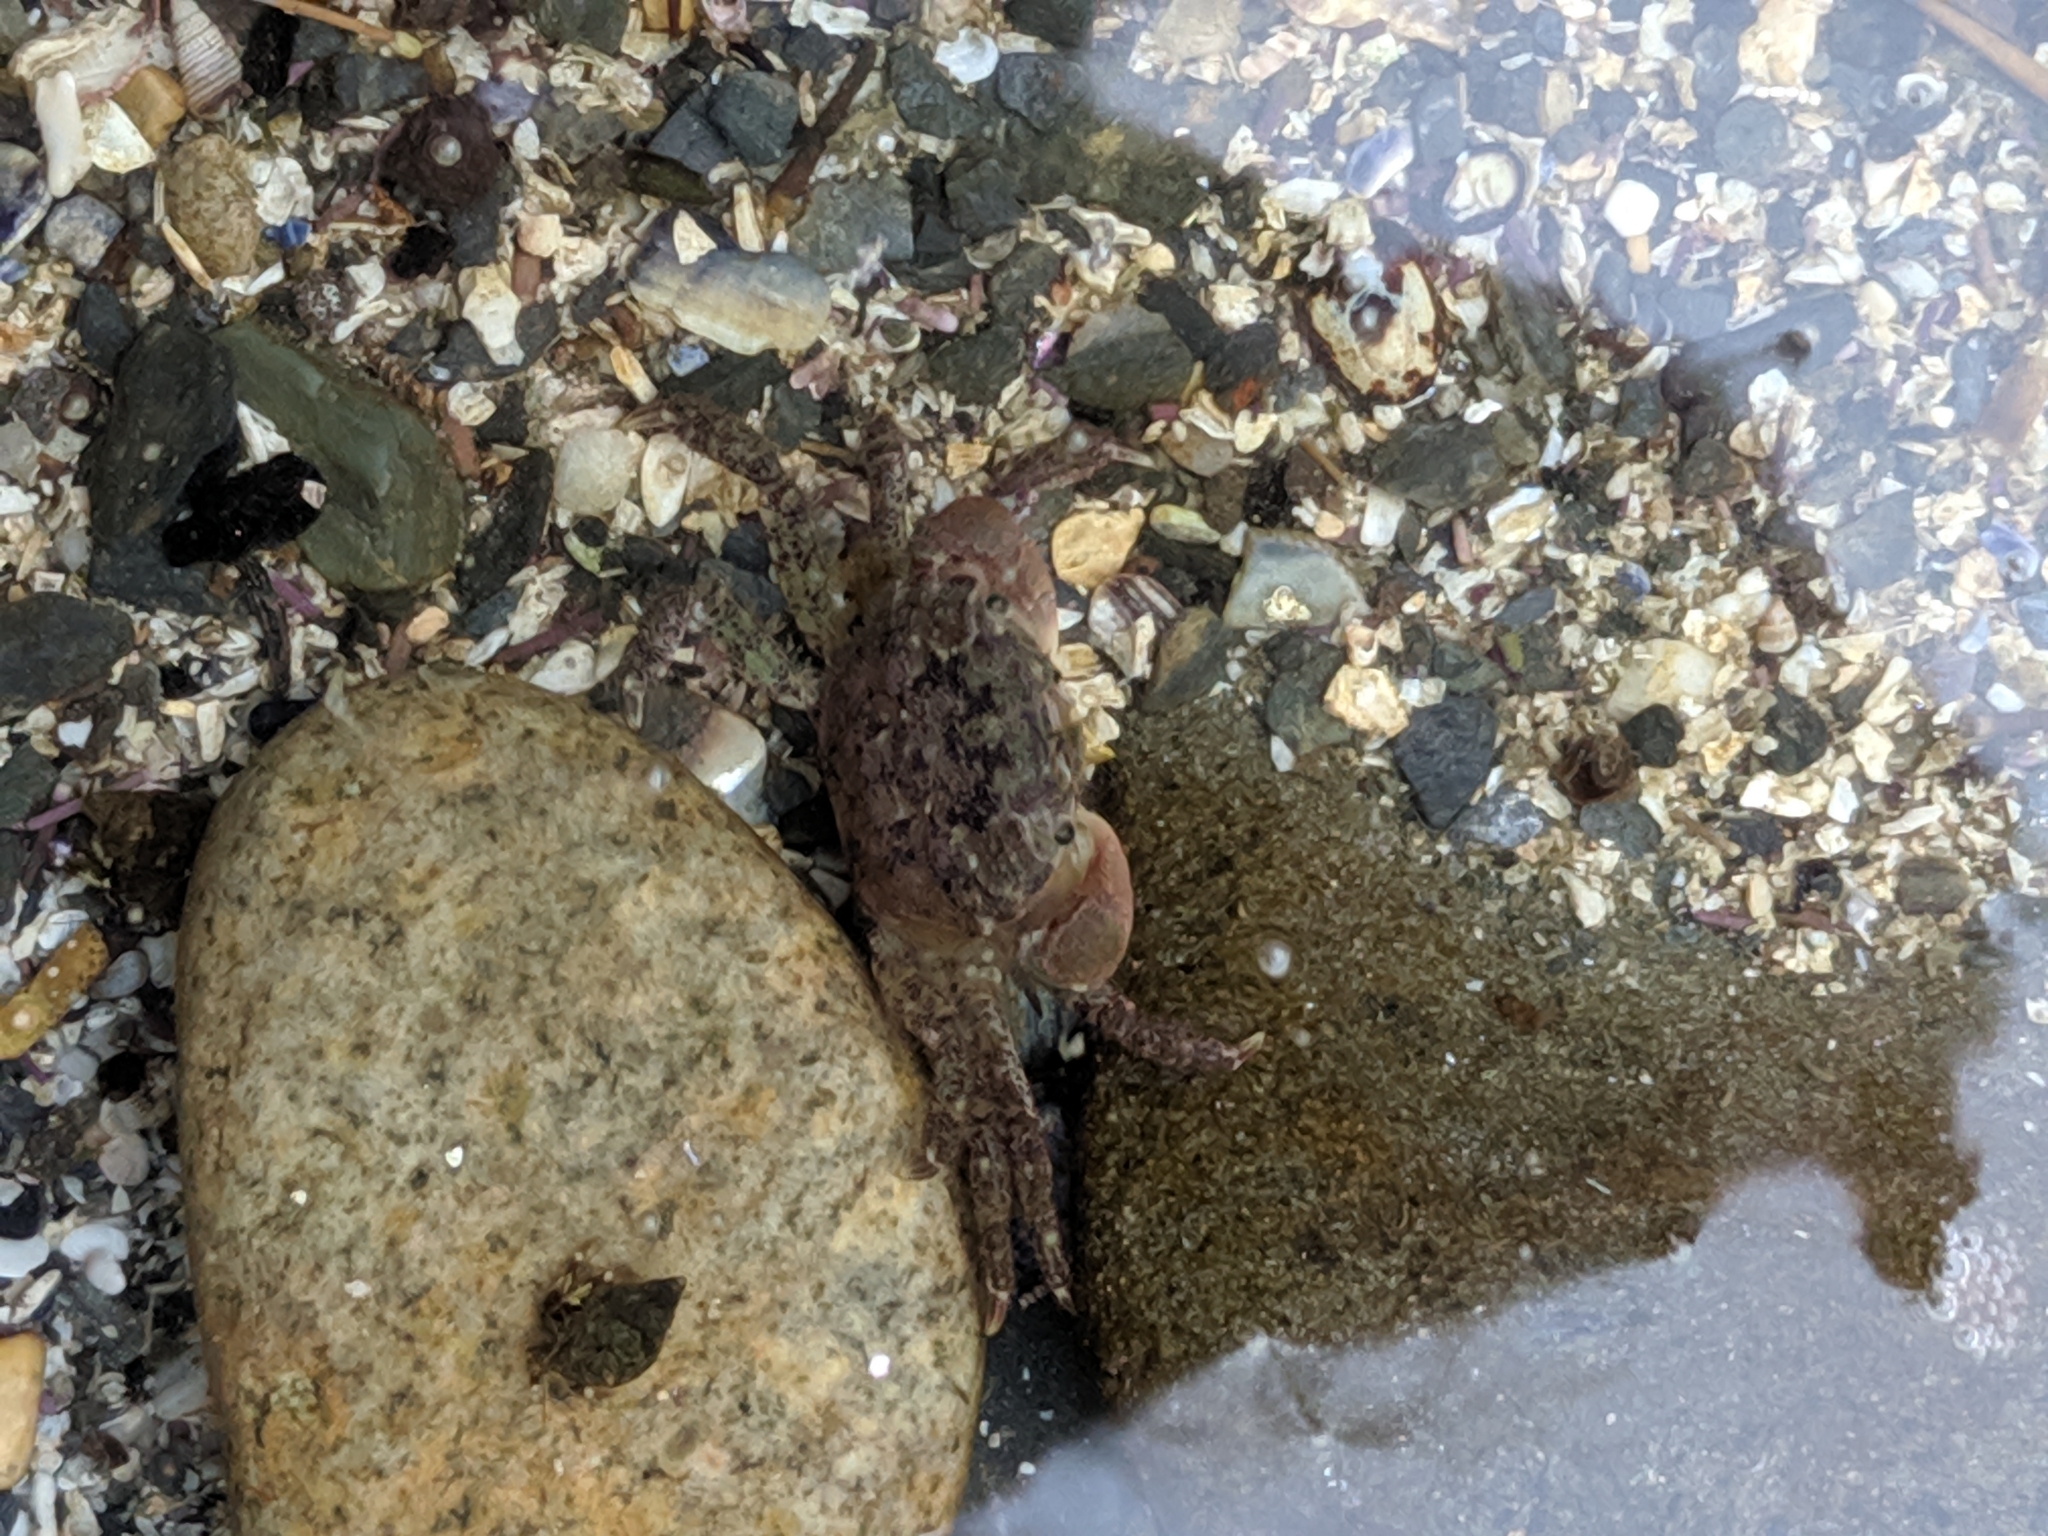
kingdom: Animalia
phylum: Arthropoda
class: Malacostraca
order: Decapoda
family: Varunidae
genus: Hemigrapsus
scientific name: Hemigrapsus oregonensis
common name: Yellow shore crab
